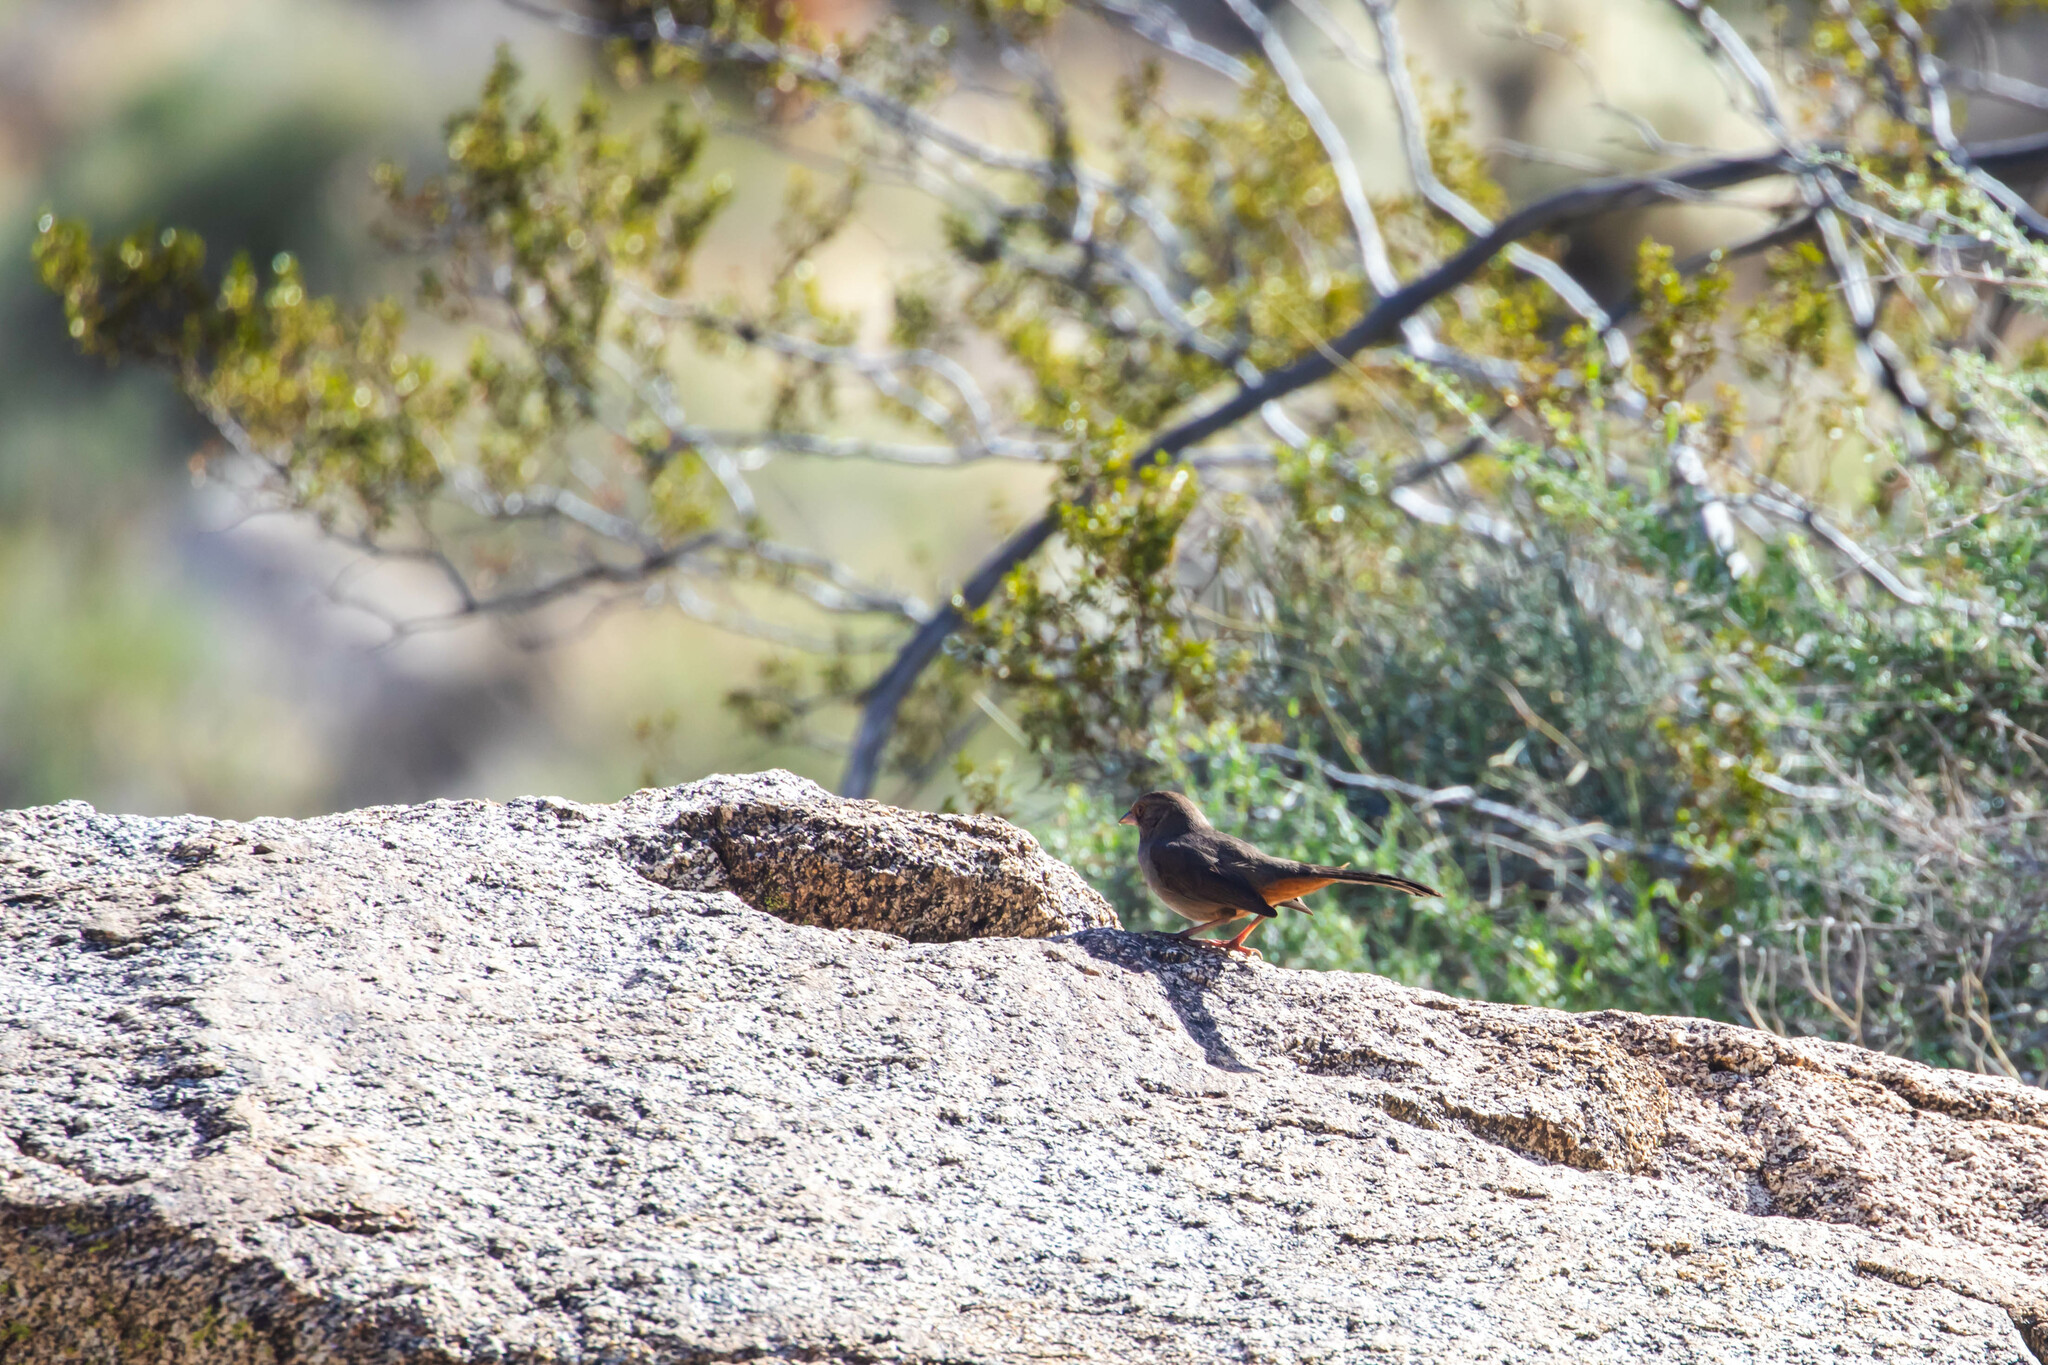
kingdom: Animalia
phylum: Chordata
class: Aves
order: Passeriformes
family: Passerellidae
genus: Melozone
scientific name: Melozone crissalis
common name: California towhee
